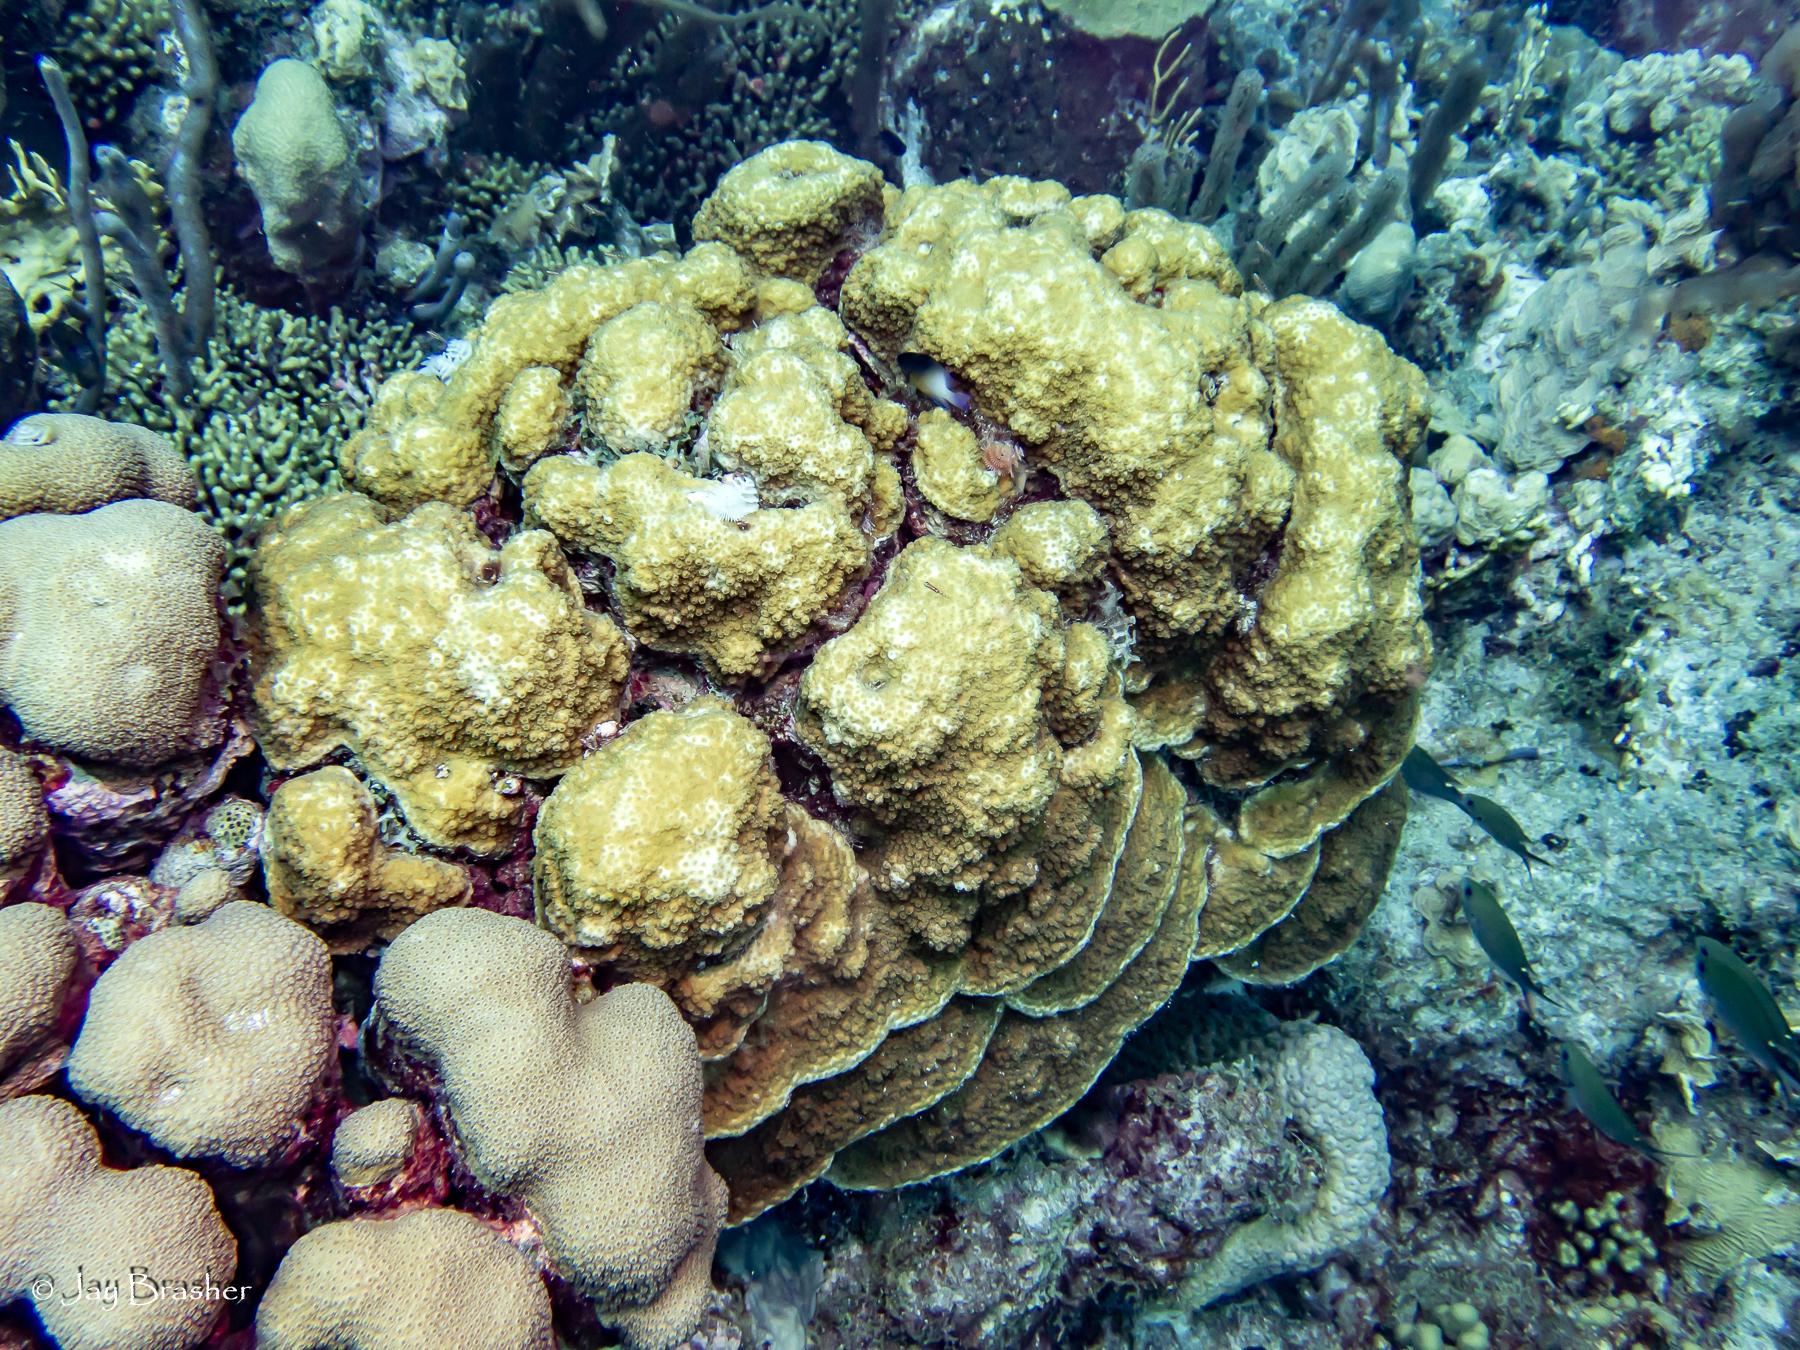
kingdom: Animalia
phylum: Cnidaria
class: Anthozoa
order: Scleractinia
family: Merulinidae
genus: Orbicella
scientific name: Orbicella franksi
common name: Bumpy star coral
